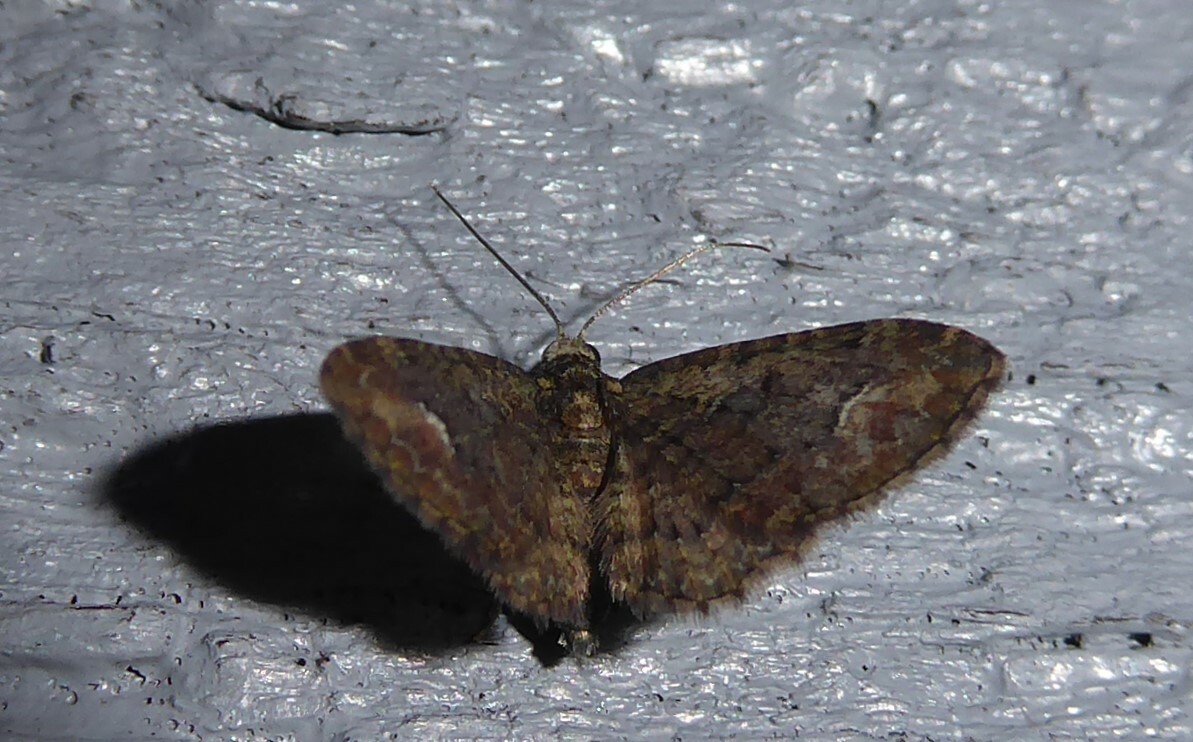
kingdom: Animalia
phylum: Arthropoda
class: Insecta
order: Lepidoptera
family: Geometridae
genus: Pasiphilodes
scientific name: Pasiphilodes testulata
